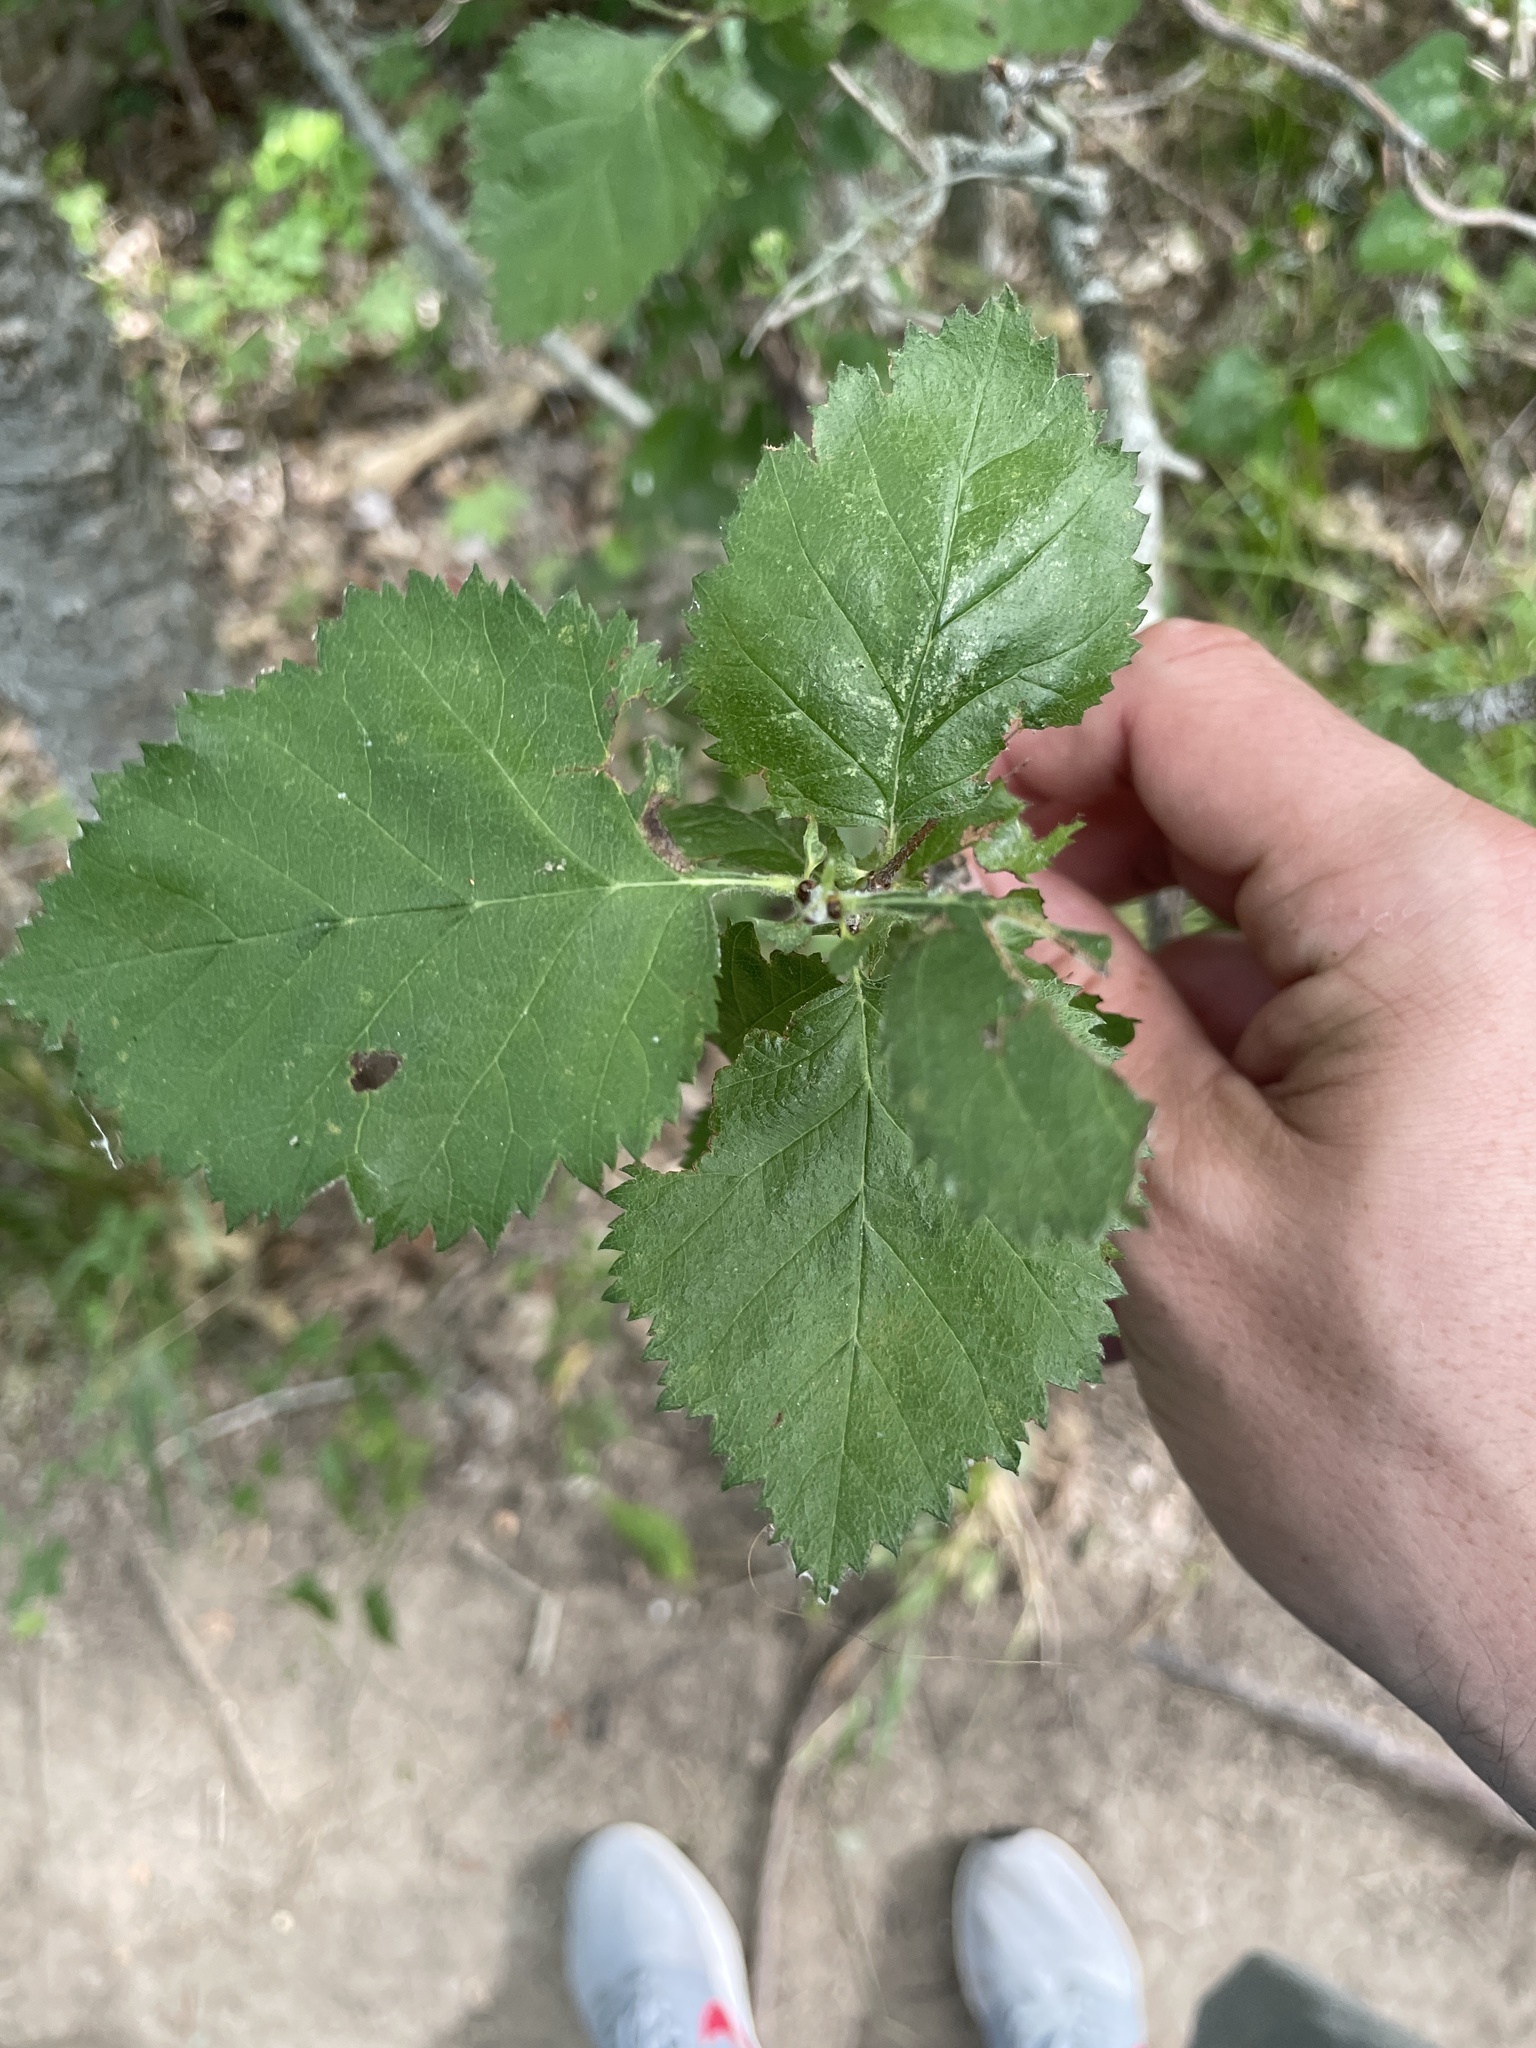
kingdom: Plantae
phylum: Tracheophyta
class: Magnoliopsida
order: Rosales
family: Rosaceae
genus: Crataegus
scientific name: Crataegus mollis
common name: Downy hawthorn
